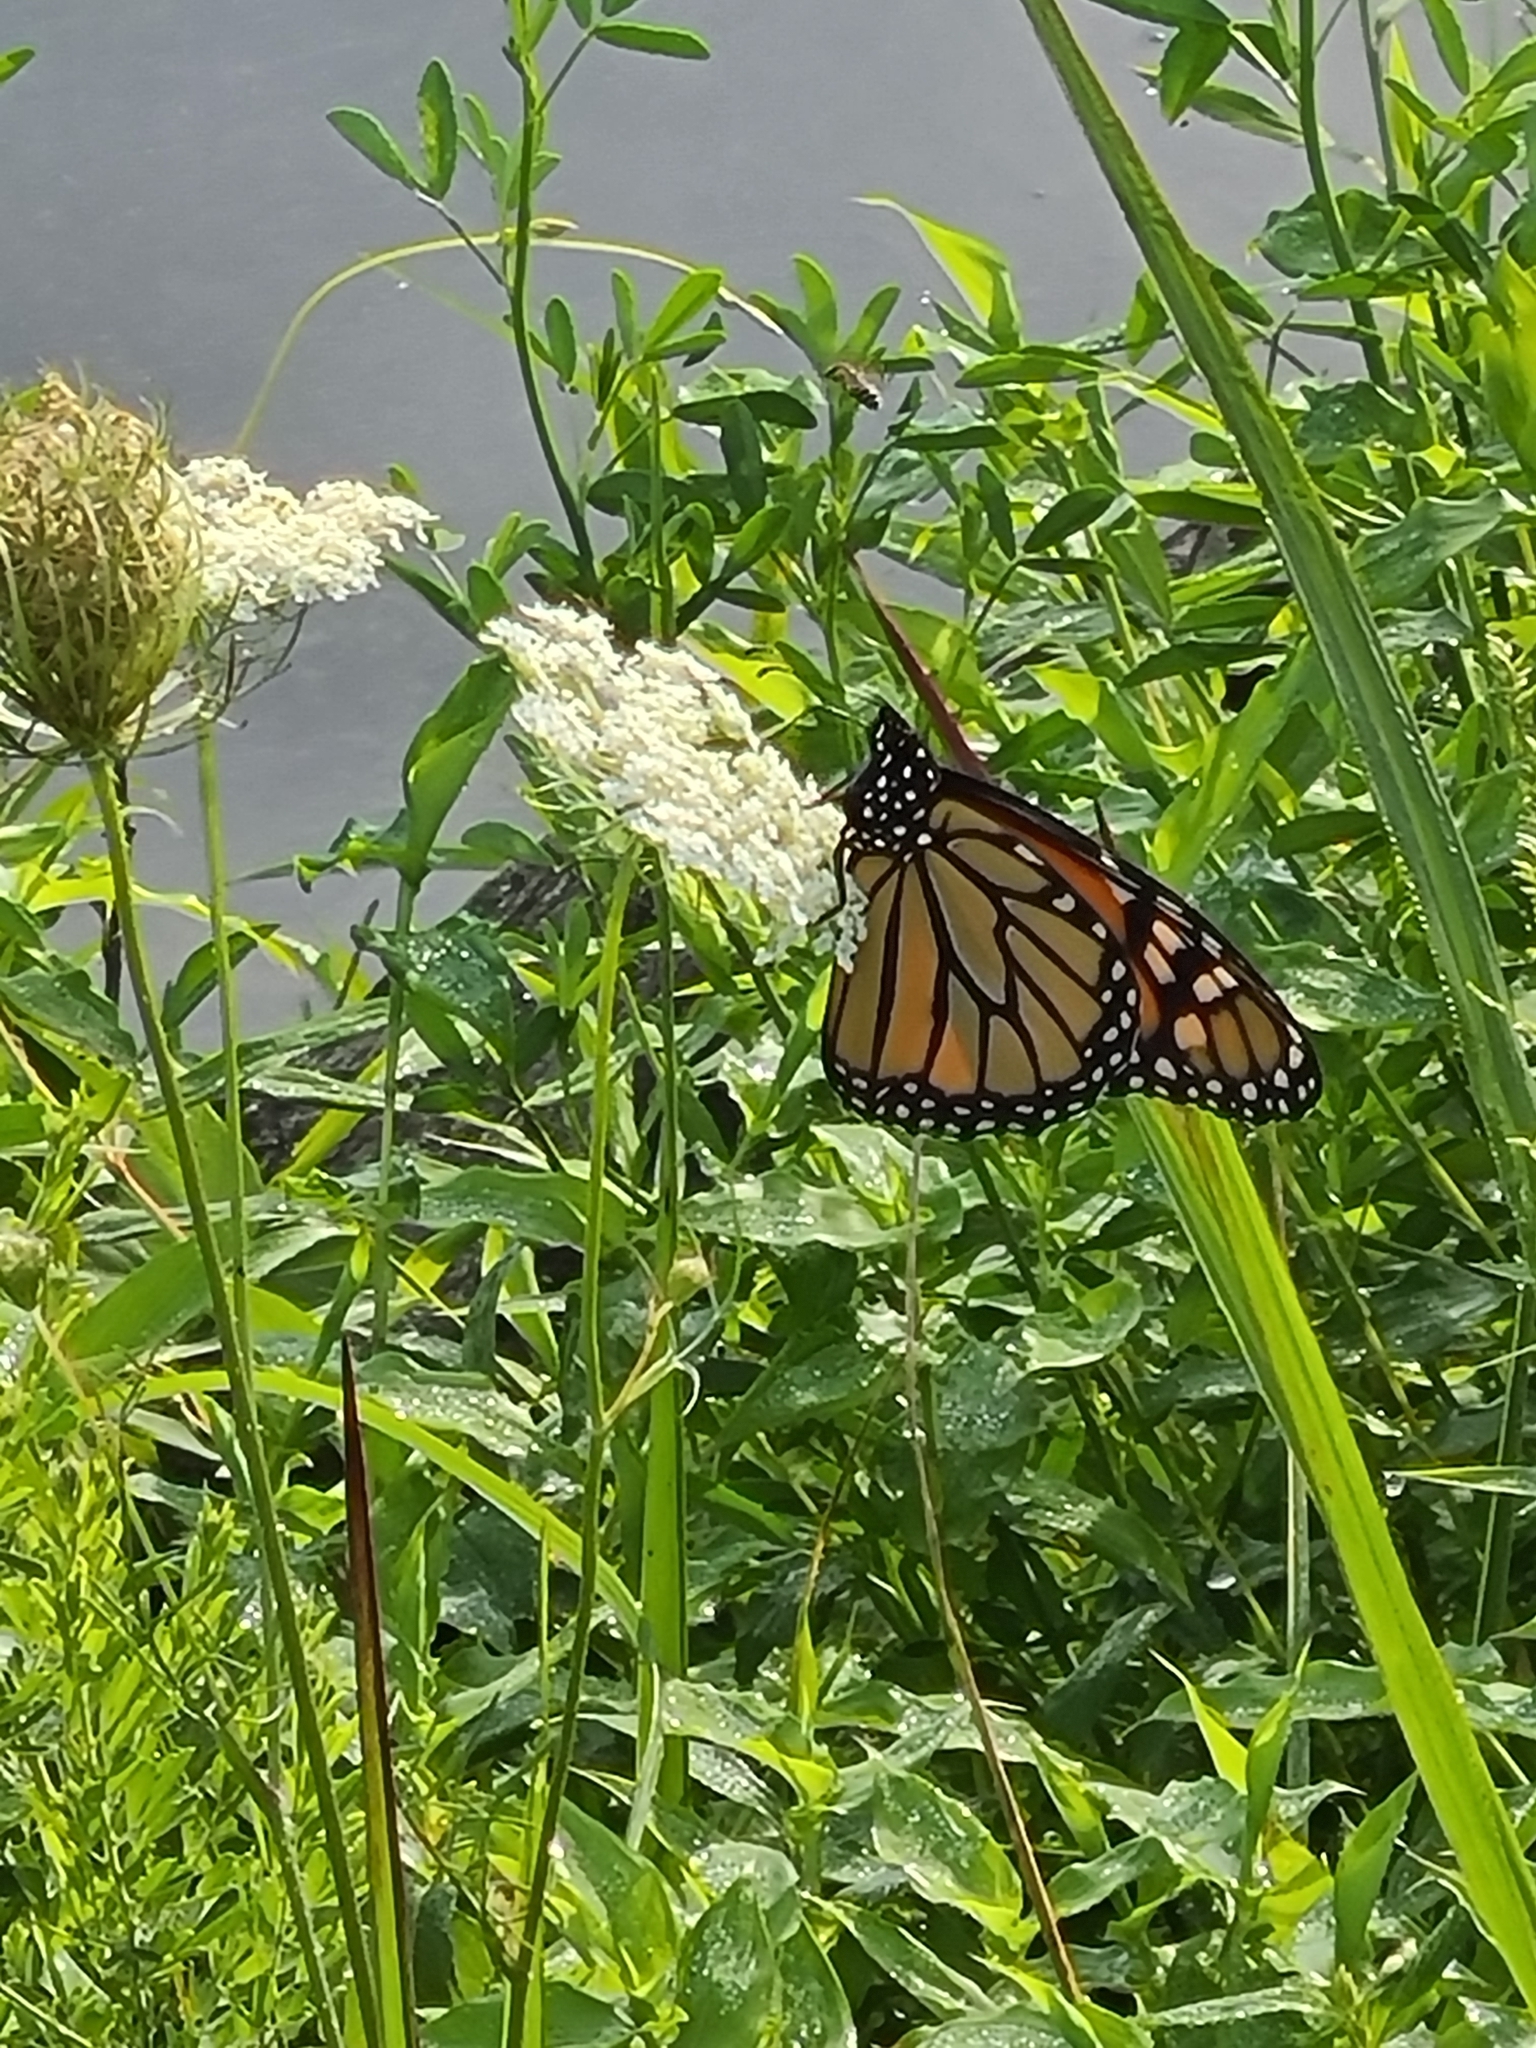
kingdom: Animalia
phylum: Arthropoda
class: Insecta
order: Lepidoptera
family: Nymphalidae
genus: Danaus
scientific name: Danaus plexippus
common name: Monarch
